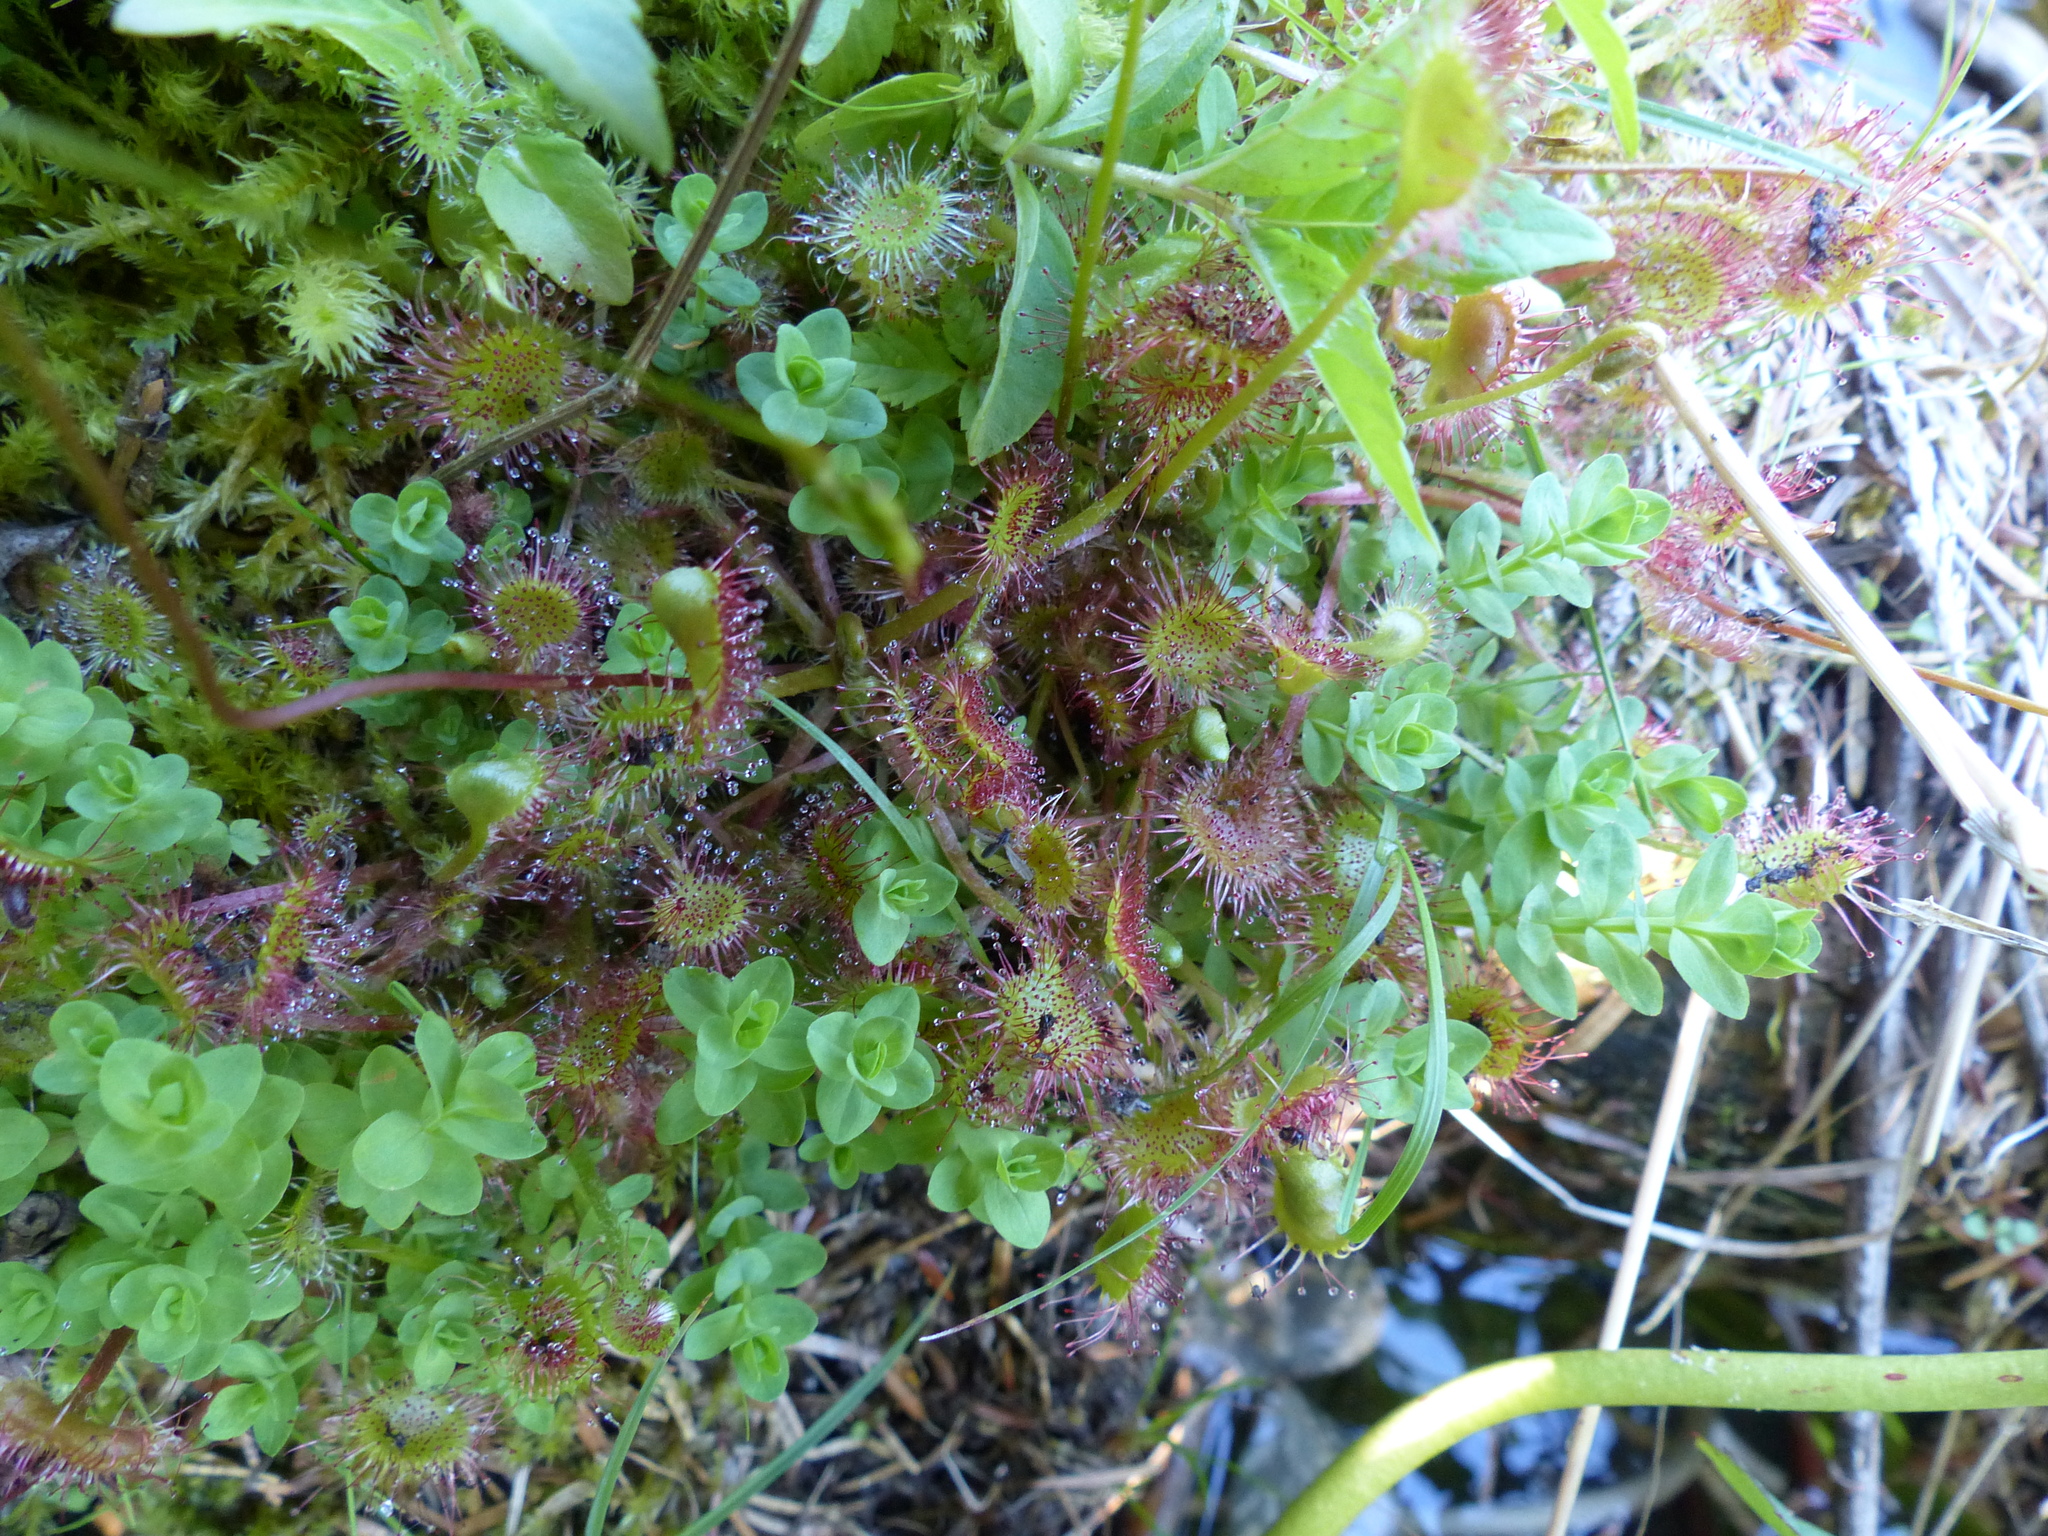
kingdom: Plantae
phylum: Tracheophyta
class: Magnoliopsida
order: Caryophyllales
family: Droseraceae
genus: Drosera
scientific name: Drosera rotundifolia
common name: Round-leaved sundew
